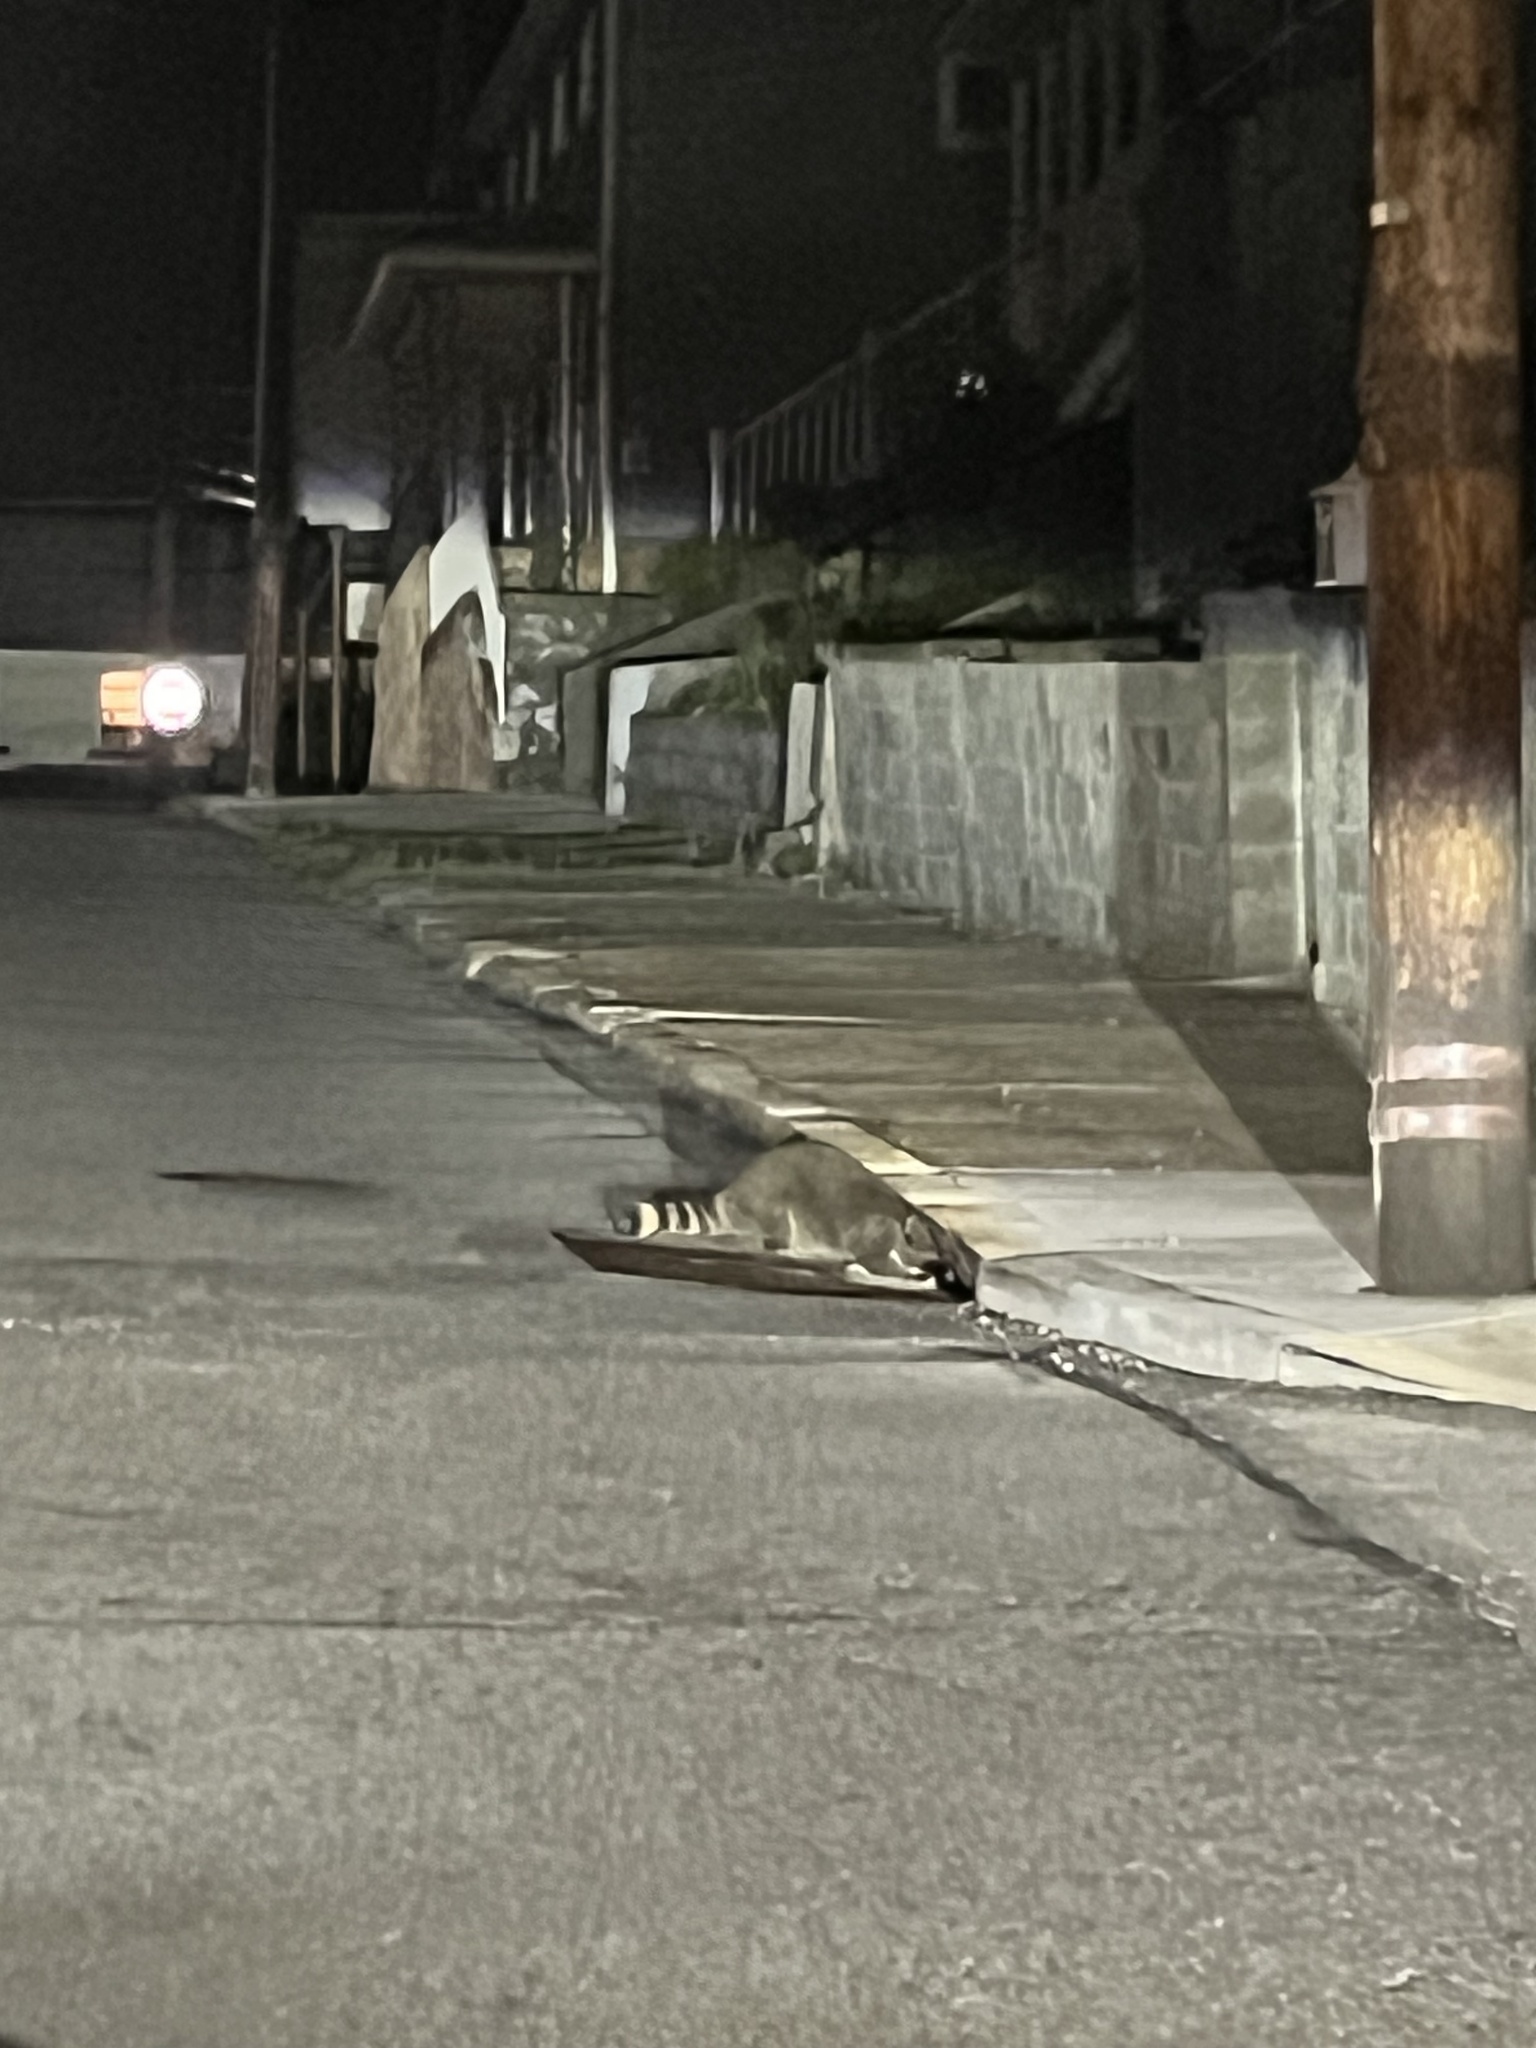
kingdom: Animalia
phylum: Chordata
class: Mammalia
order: Carnivora
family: Procyonidae
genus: Procyon
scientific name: Procyon lotor
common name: Raccoon
